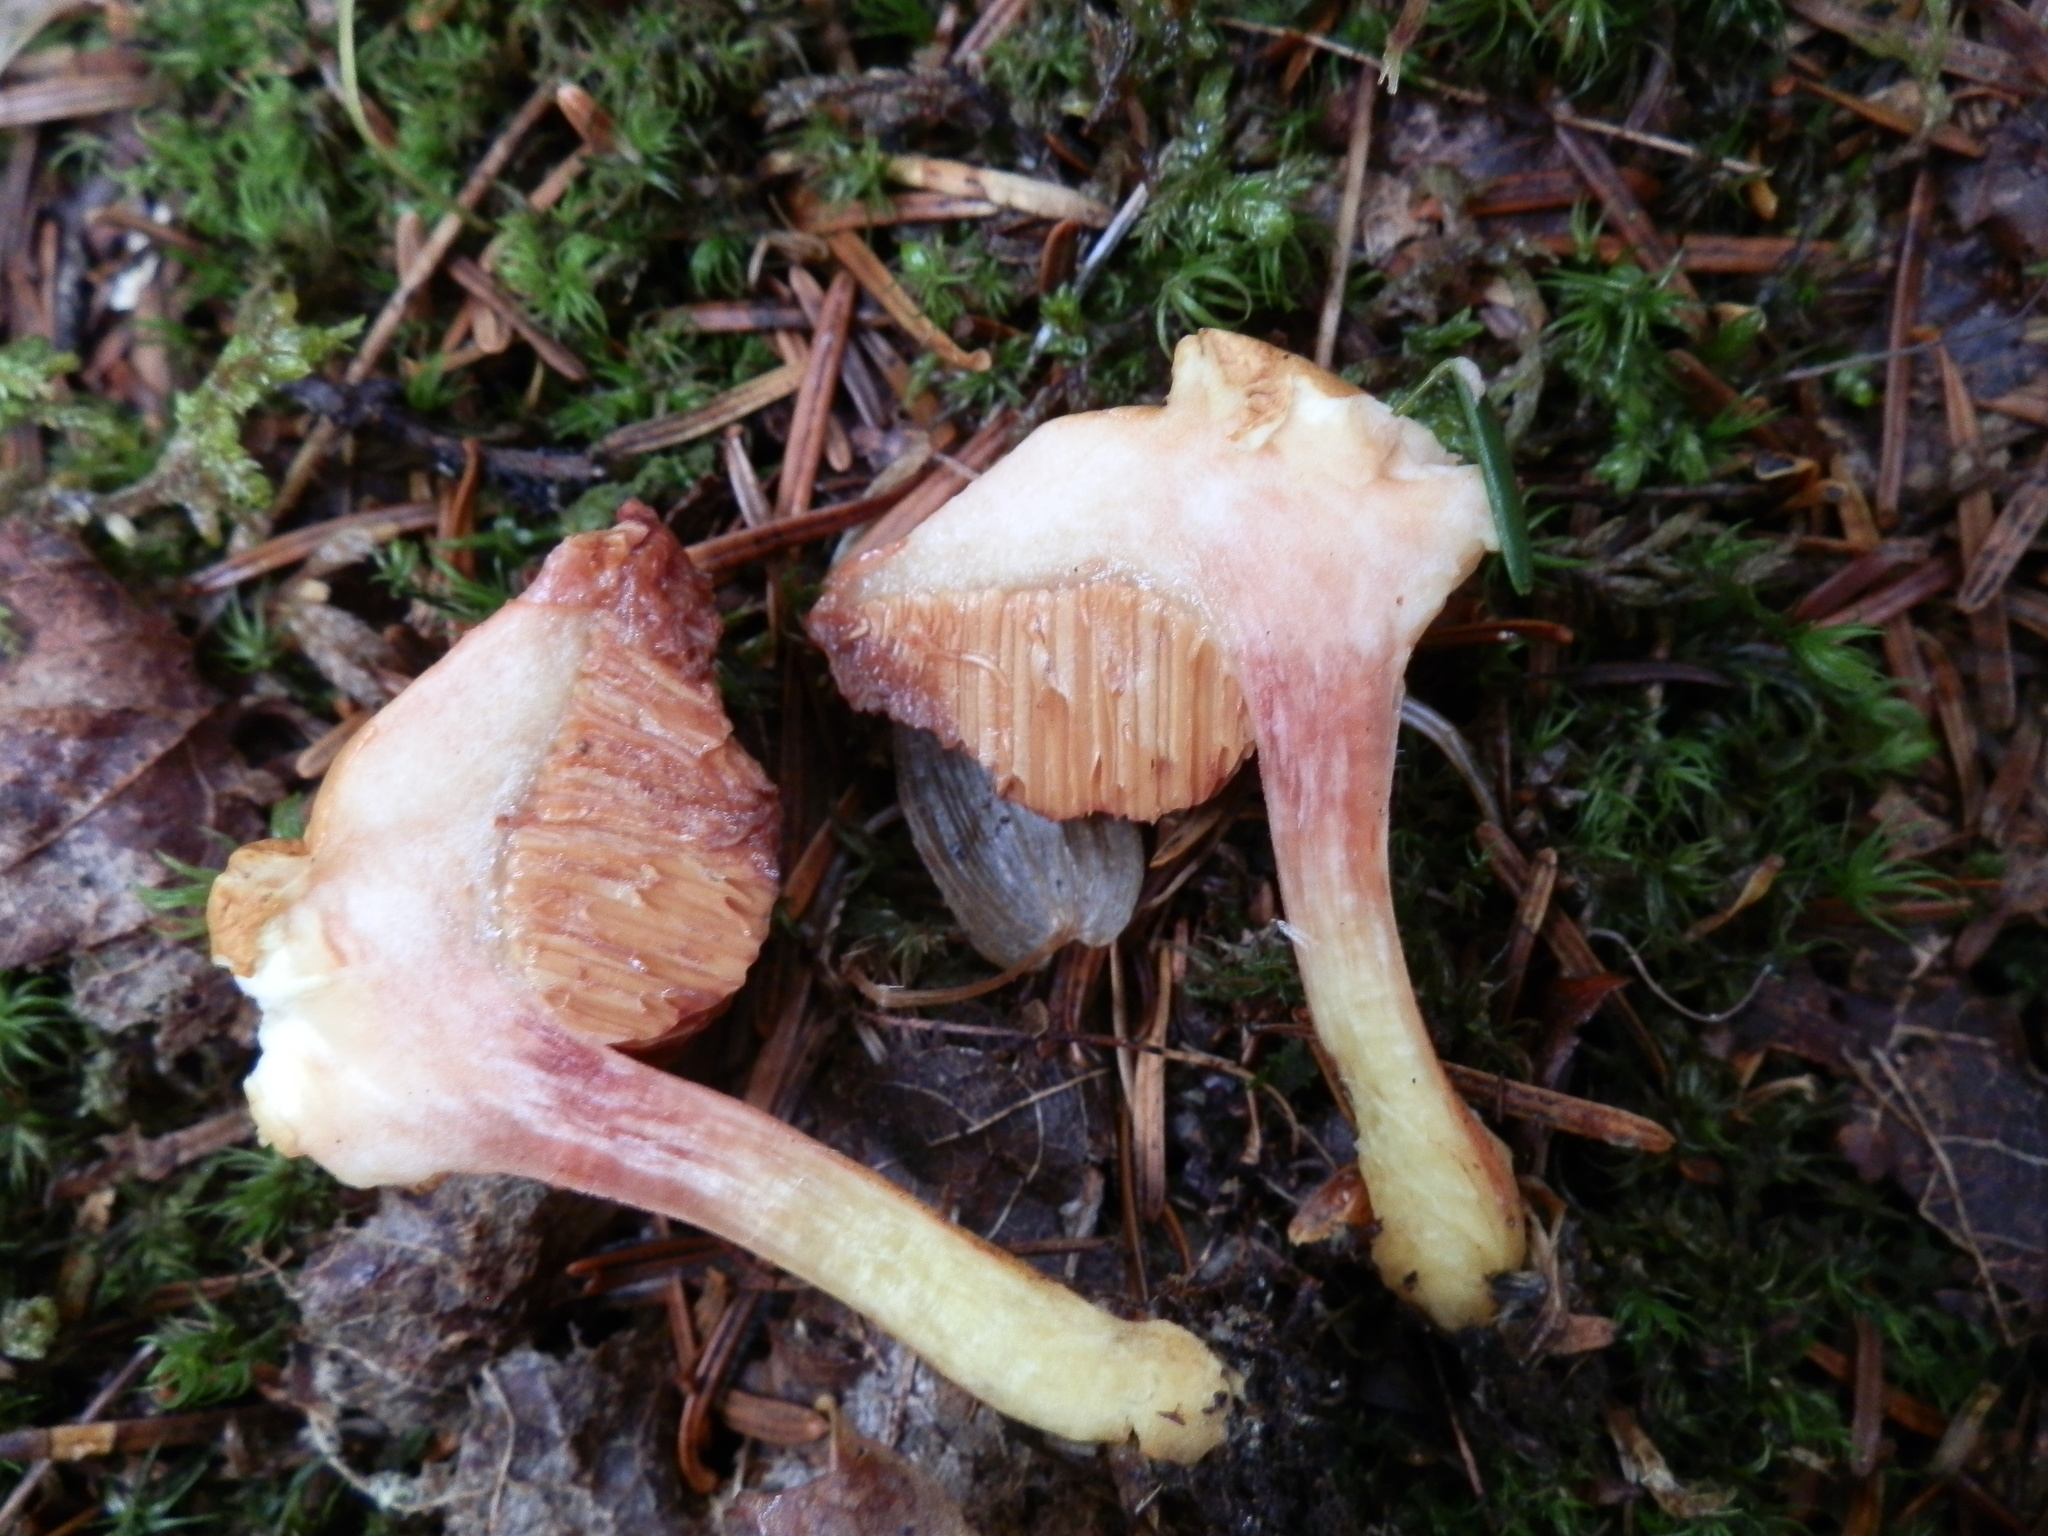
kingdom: Fungi
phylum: Basidiomycota
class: Agaricomycetes
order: Boletales
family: Boletaceae
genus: Chalciporus
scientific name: Chalciporus rubinellus
